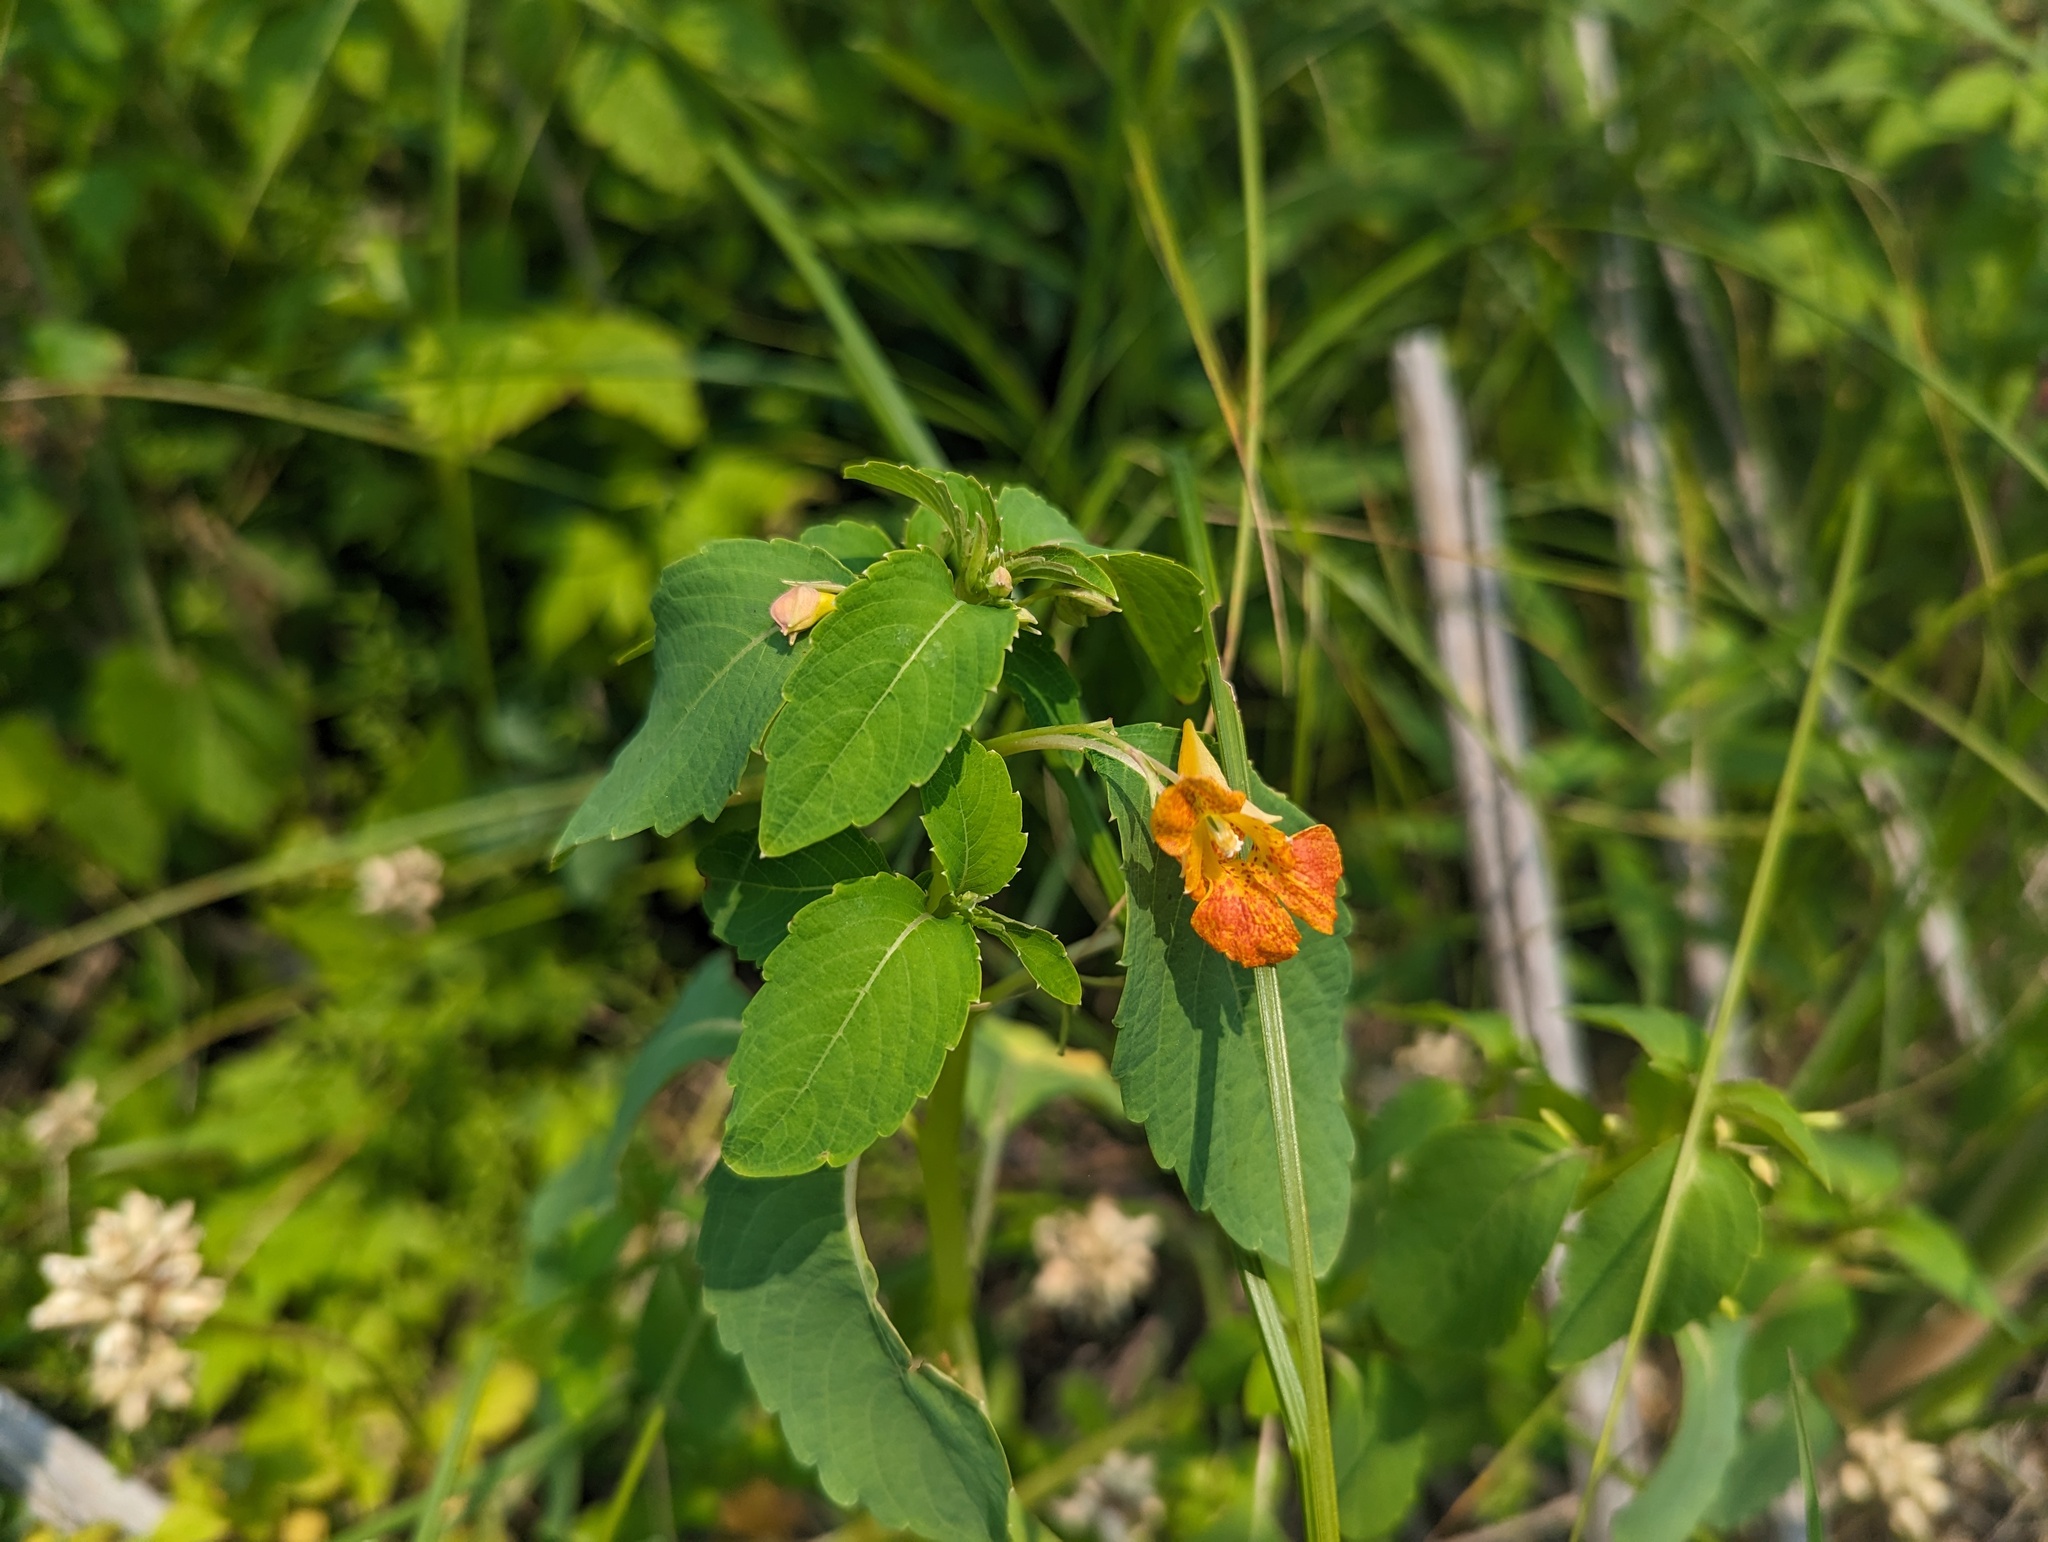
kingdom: Plantae
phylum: Tracheophyta
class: Magnoliopsida
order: Ericales
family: Balsaminaceae
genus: Impatiens
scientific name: Impatiens capensis
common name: Orange balsam
